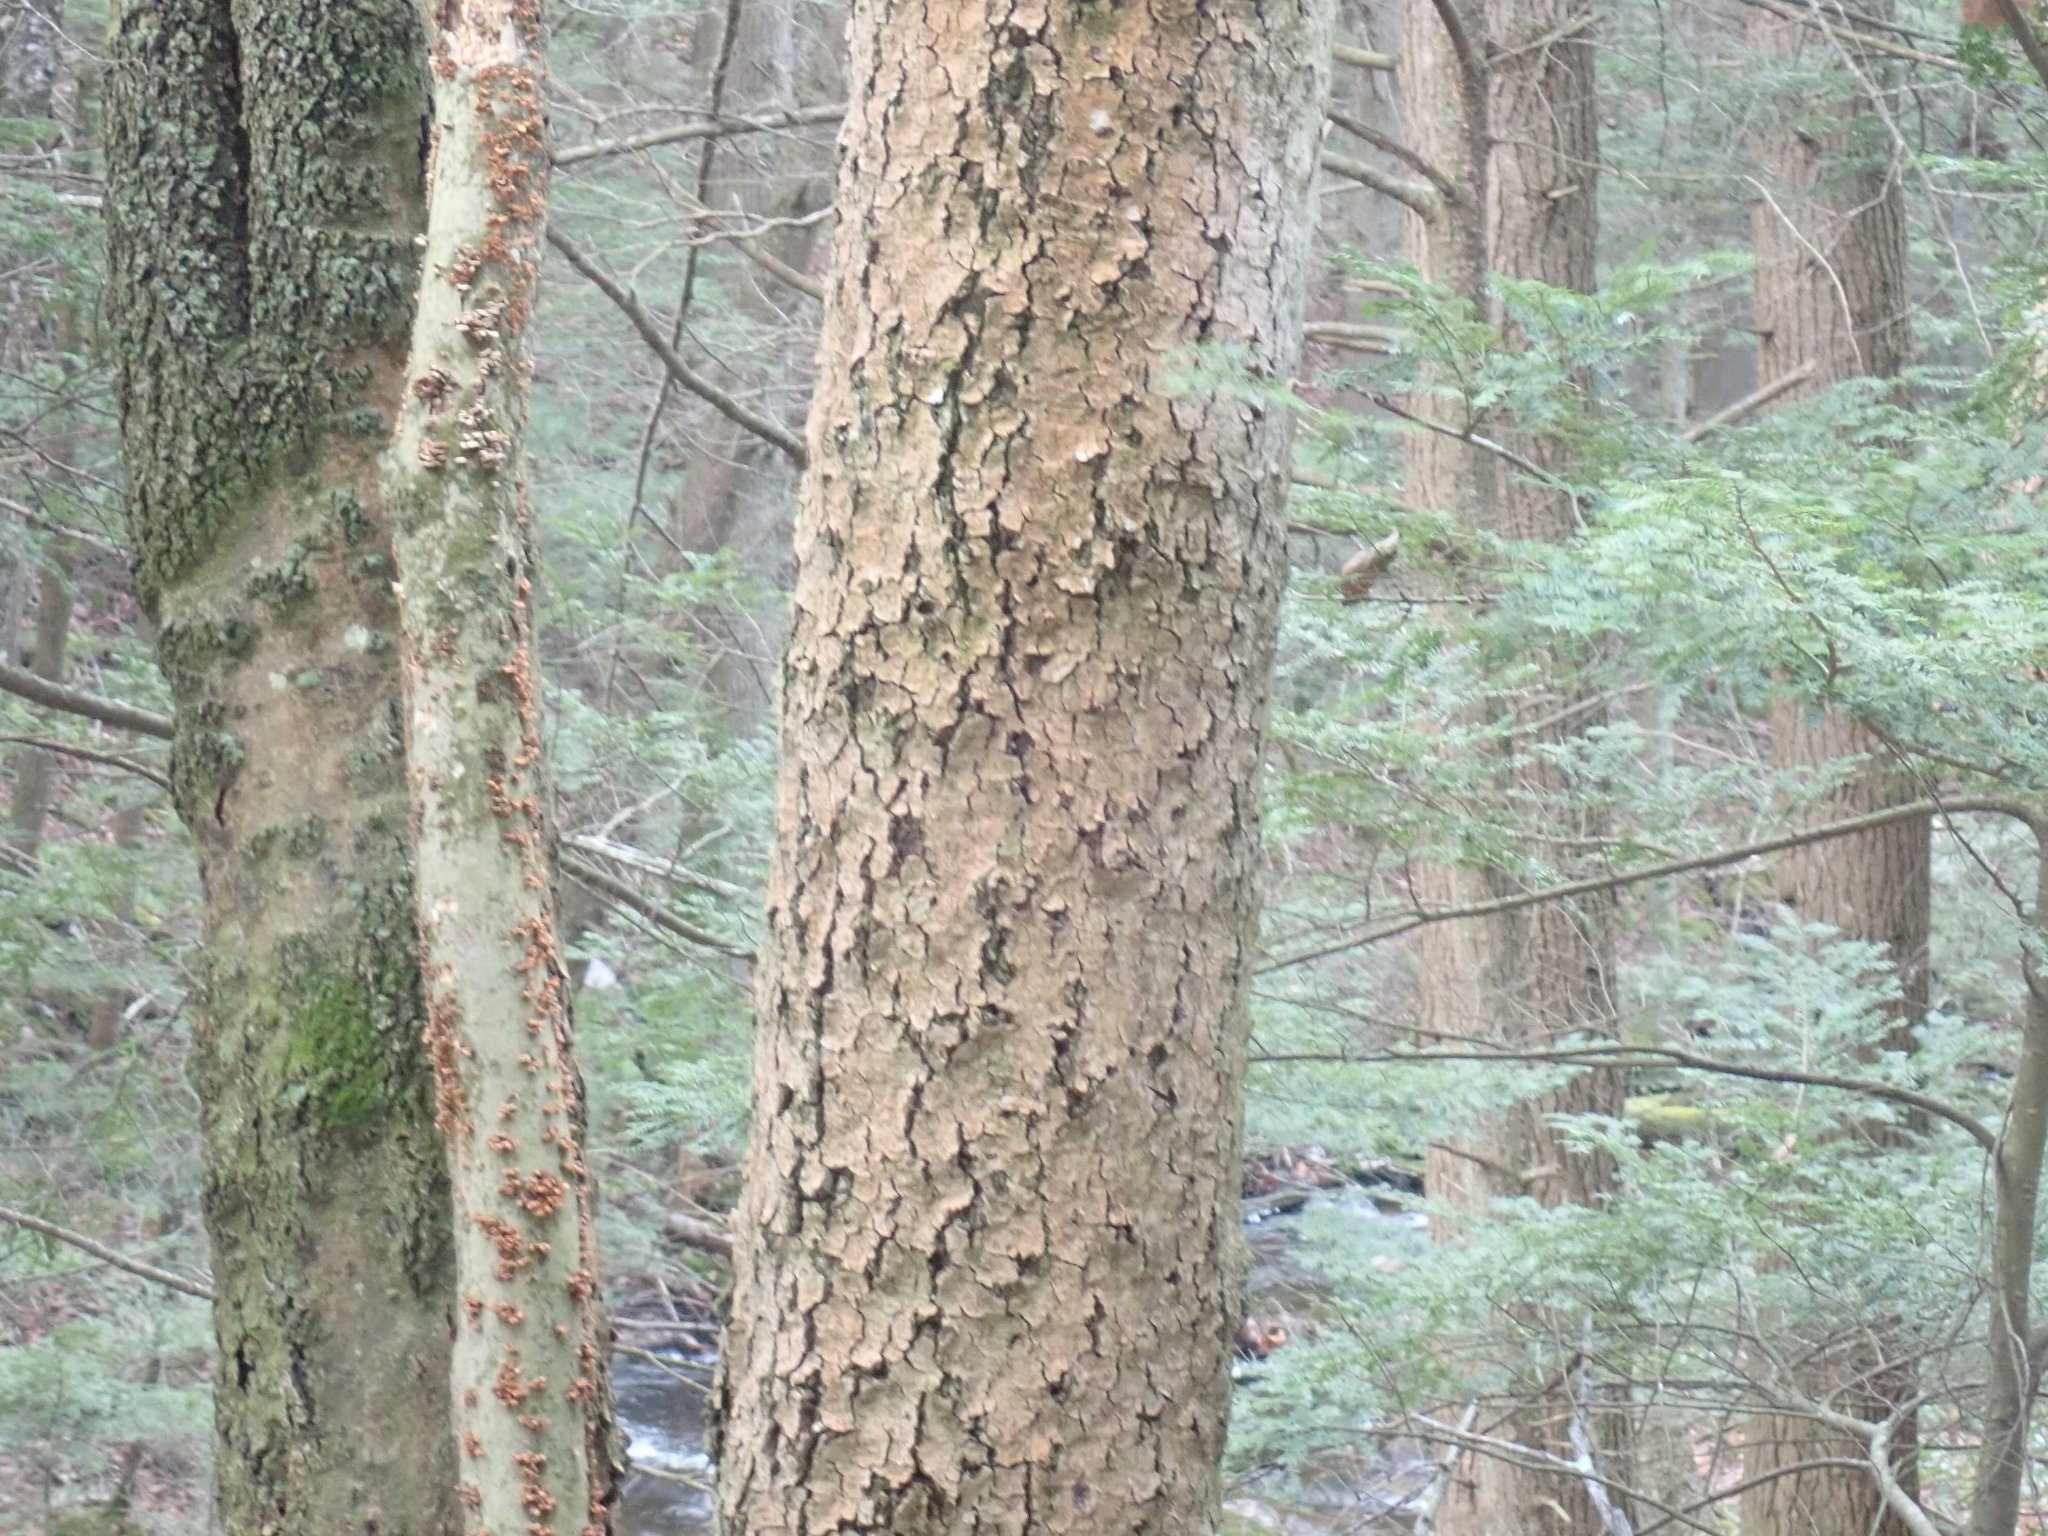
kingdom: Fungi
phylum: Ascomycota
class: Sordariomycetes
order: Hypocreales
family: Nectriaceae
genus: Neonectria
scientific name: Neonectria faginata
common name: Beech bark canker
